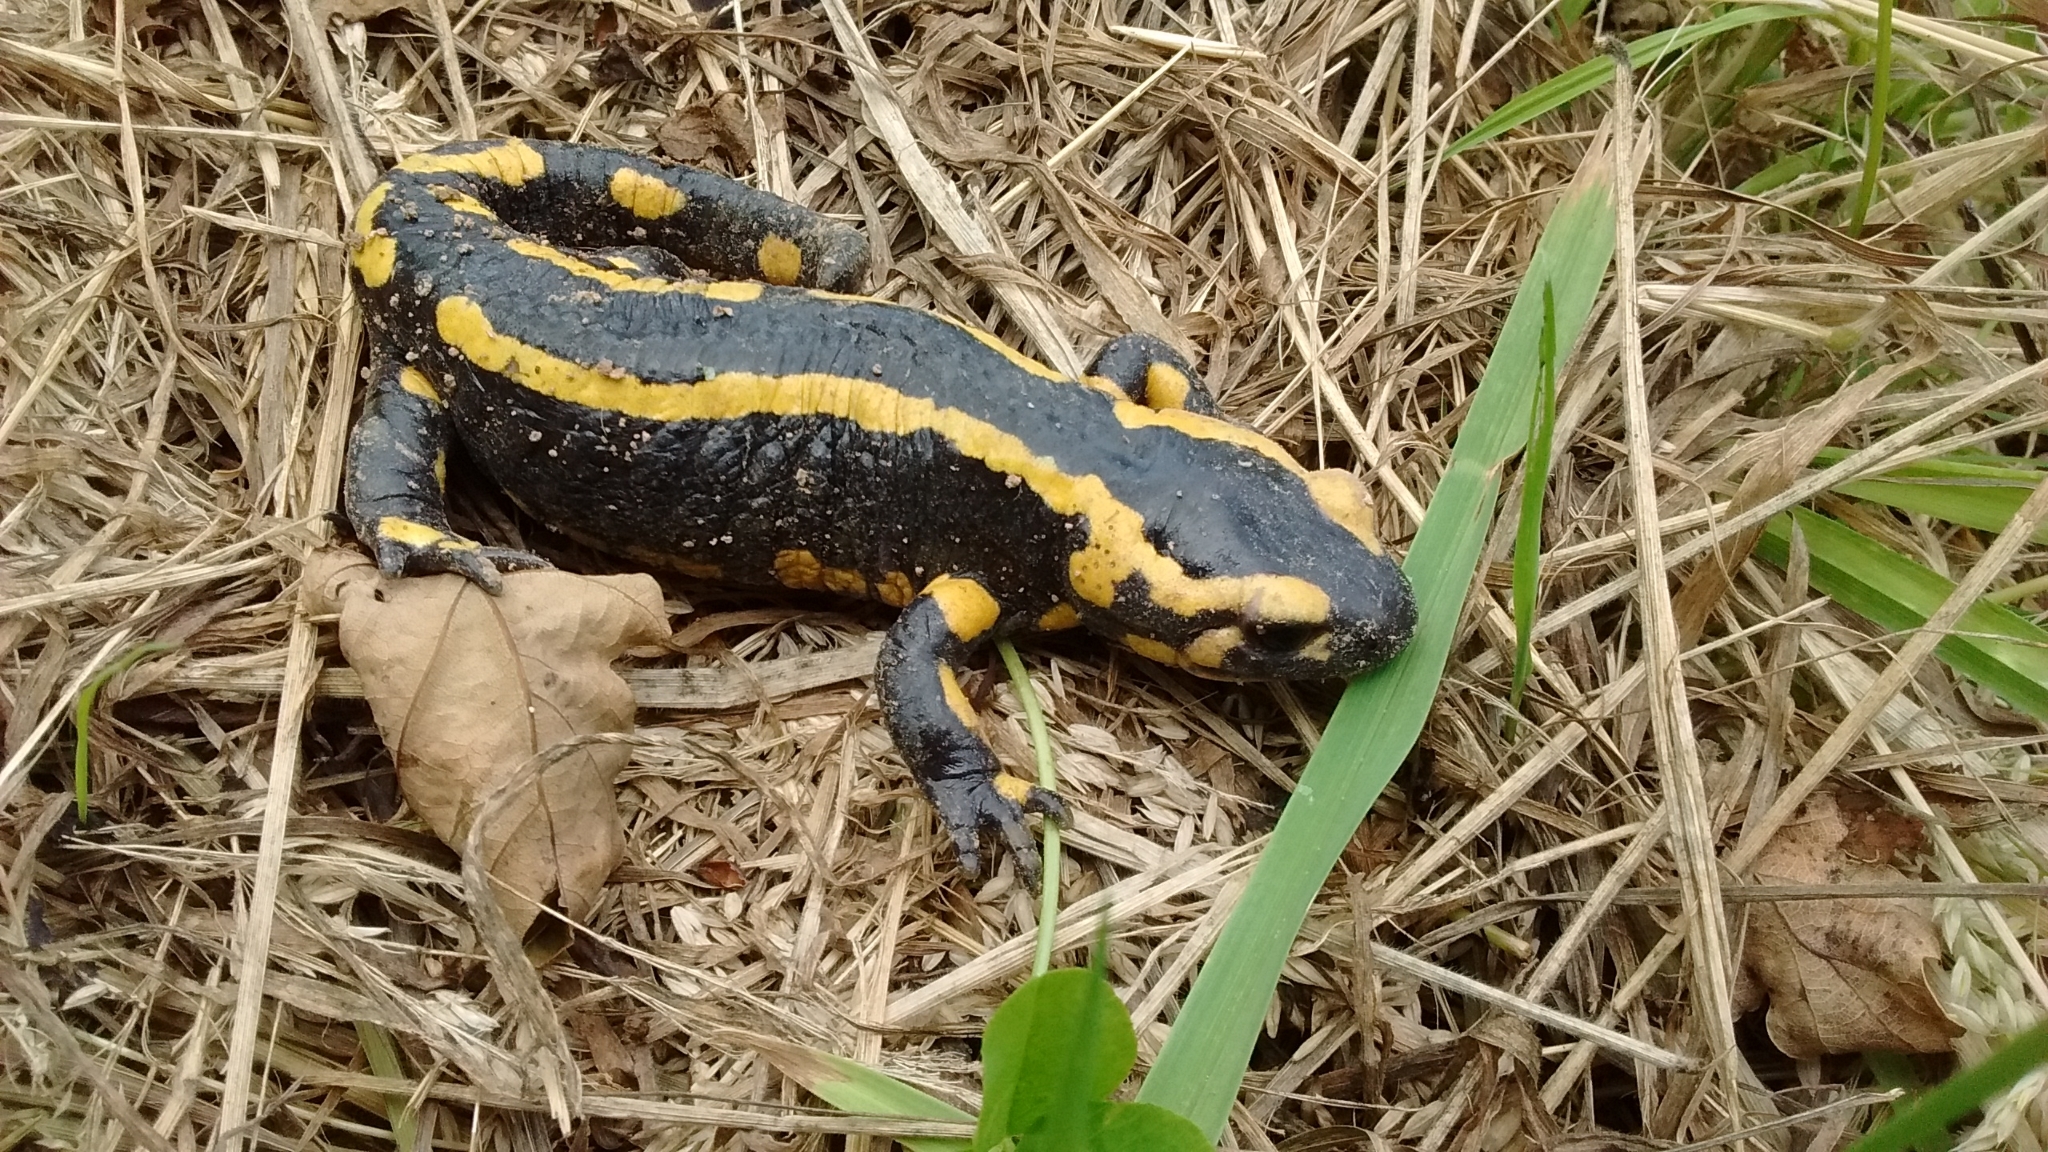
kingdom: Animalia
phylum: Chordata
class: Amphibia
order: Caudata
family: Salamandridae
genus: Salamandra
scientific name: Salamandra salamandra
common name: Fire salamander
